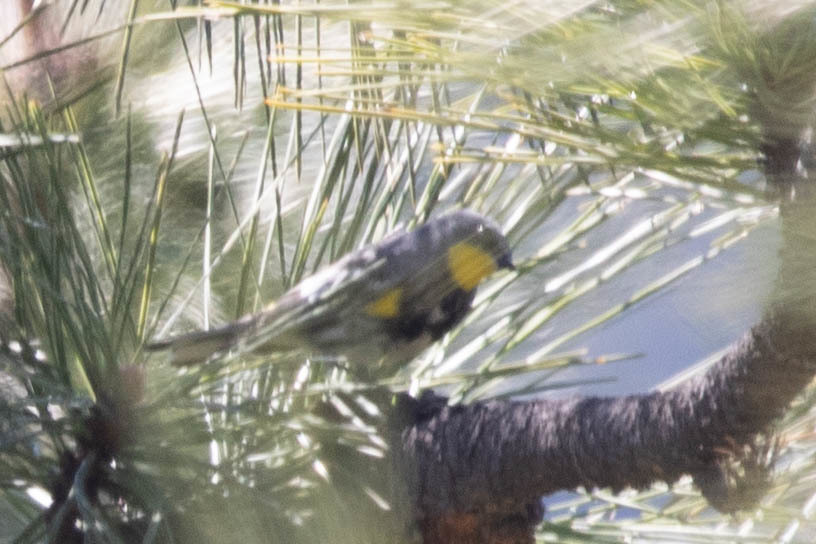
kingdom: Animalia
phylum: Chordata
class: Aves
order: Passeriformes
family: Parulidae
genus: Setophaga
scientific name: Setophaga auduboni
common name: Audubon's warbler
